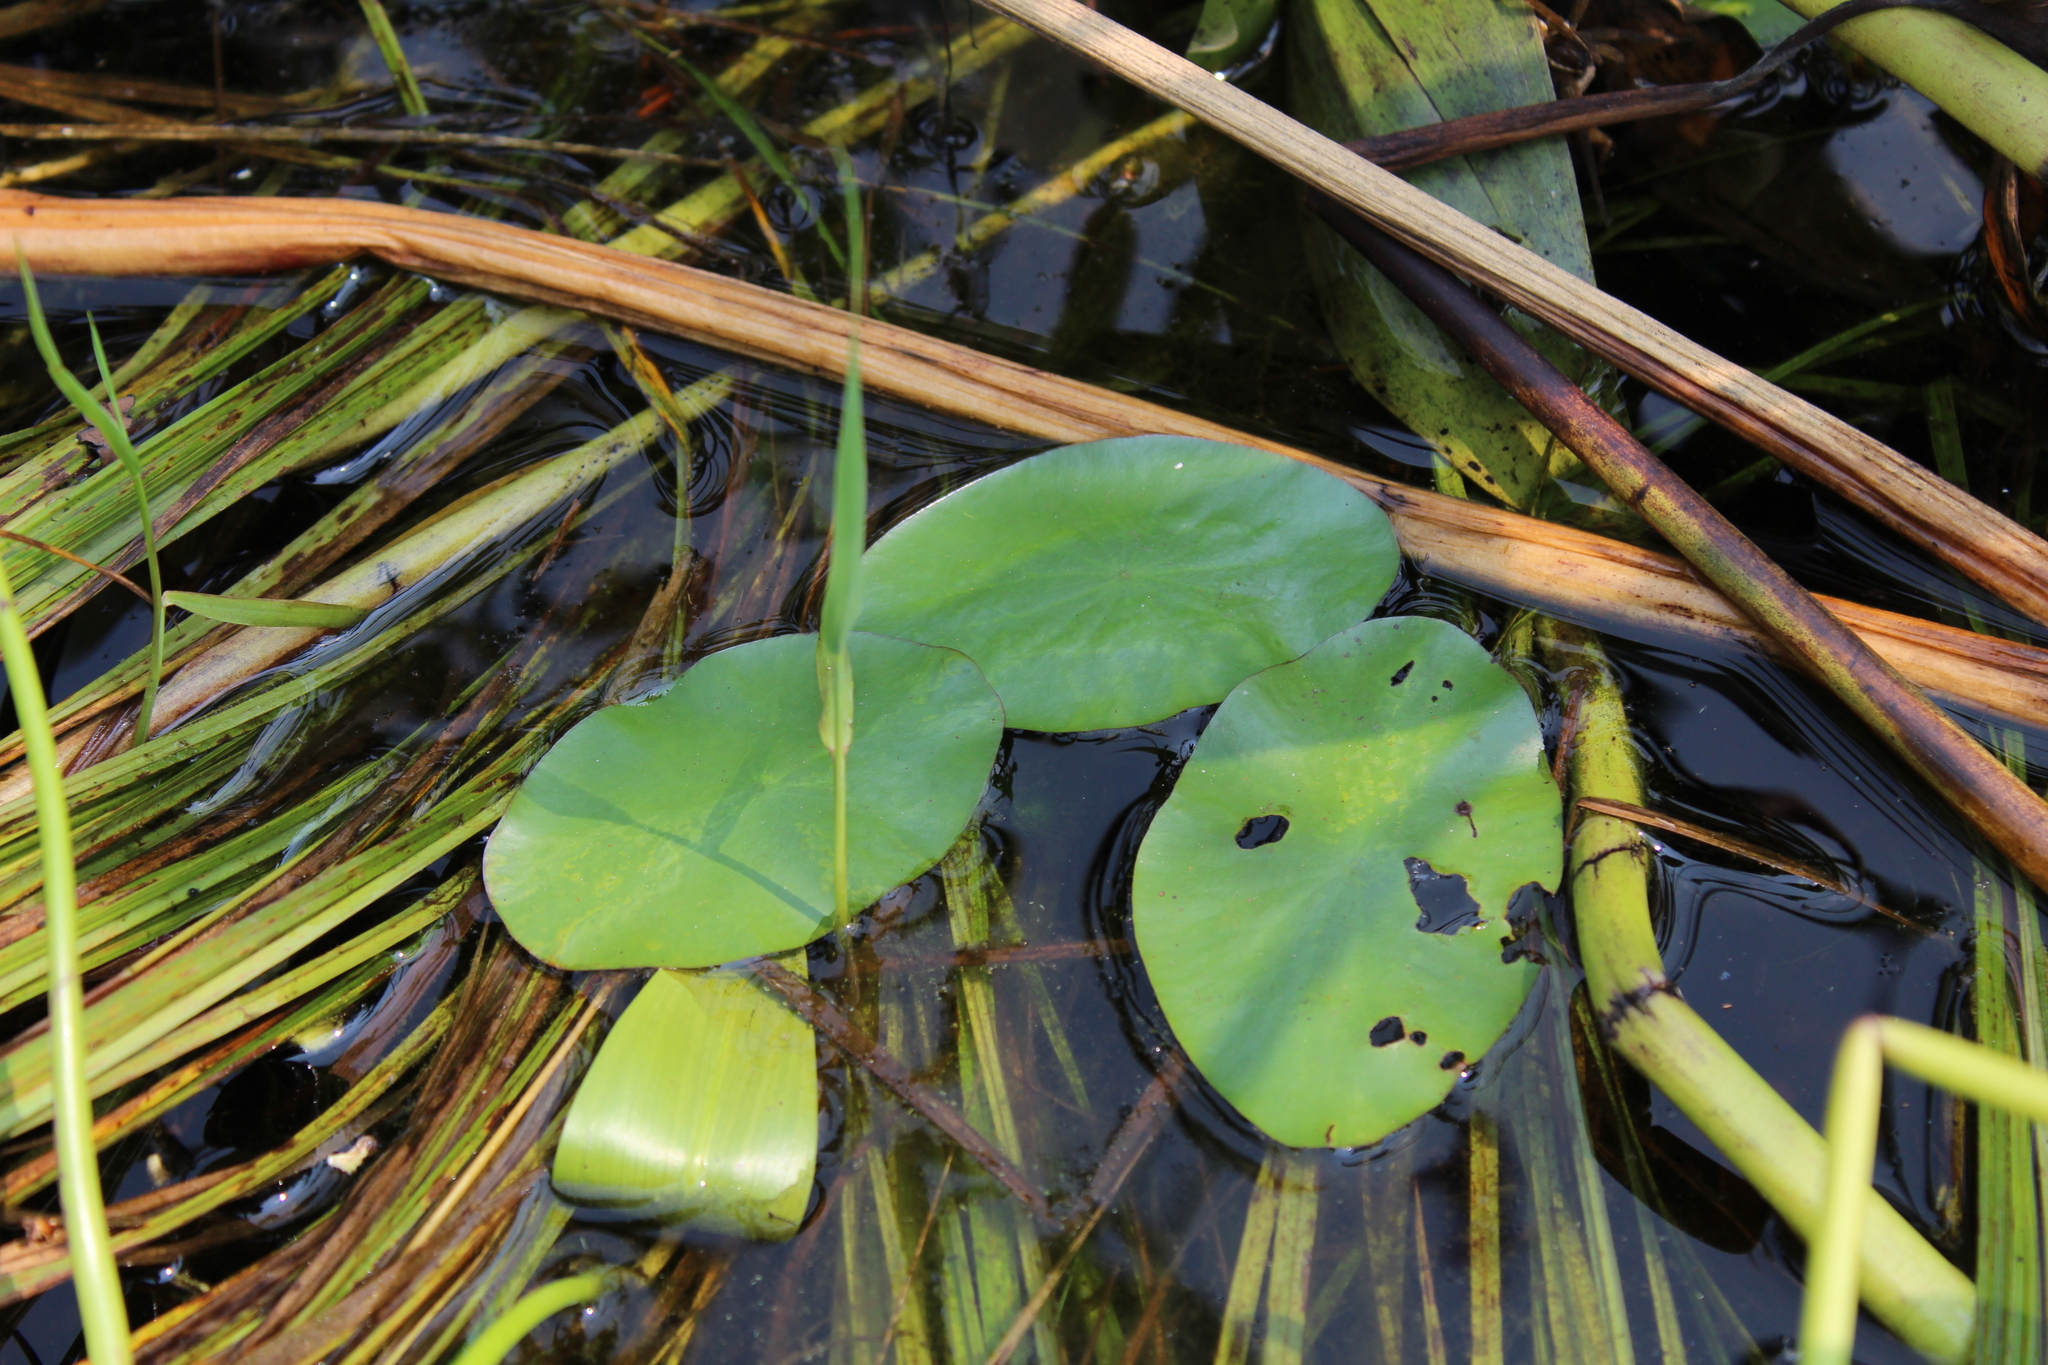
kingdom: Plantae
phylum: Tracheophyta
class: Magnoliopsida
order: Nymphaeales
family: Cabombaceae
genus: Brasenia
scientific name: Brasenia schreberi
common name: Water-shield
